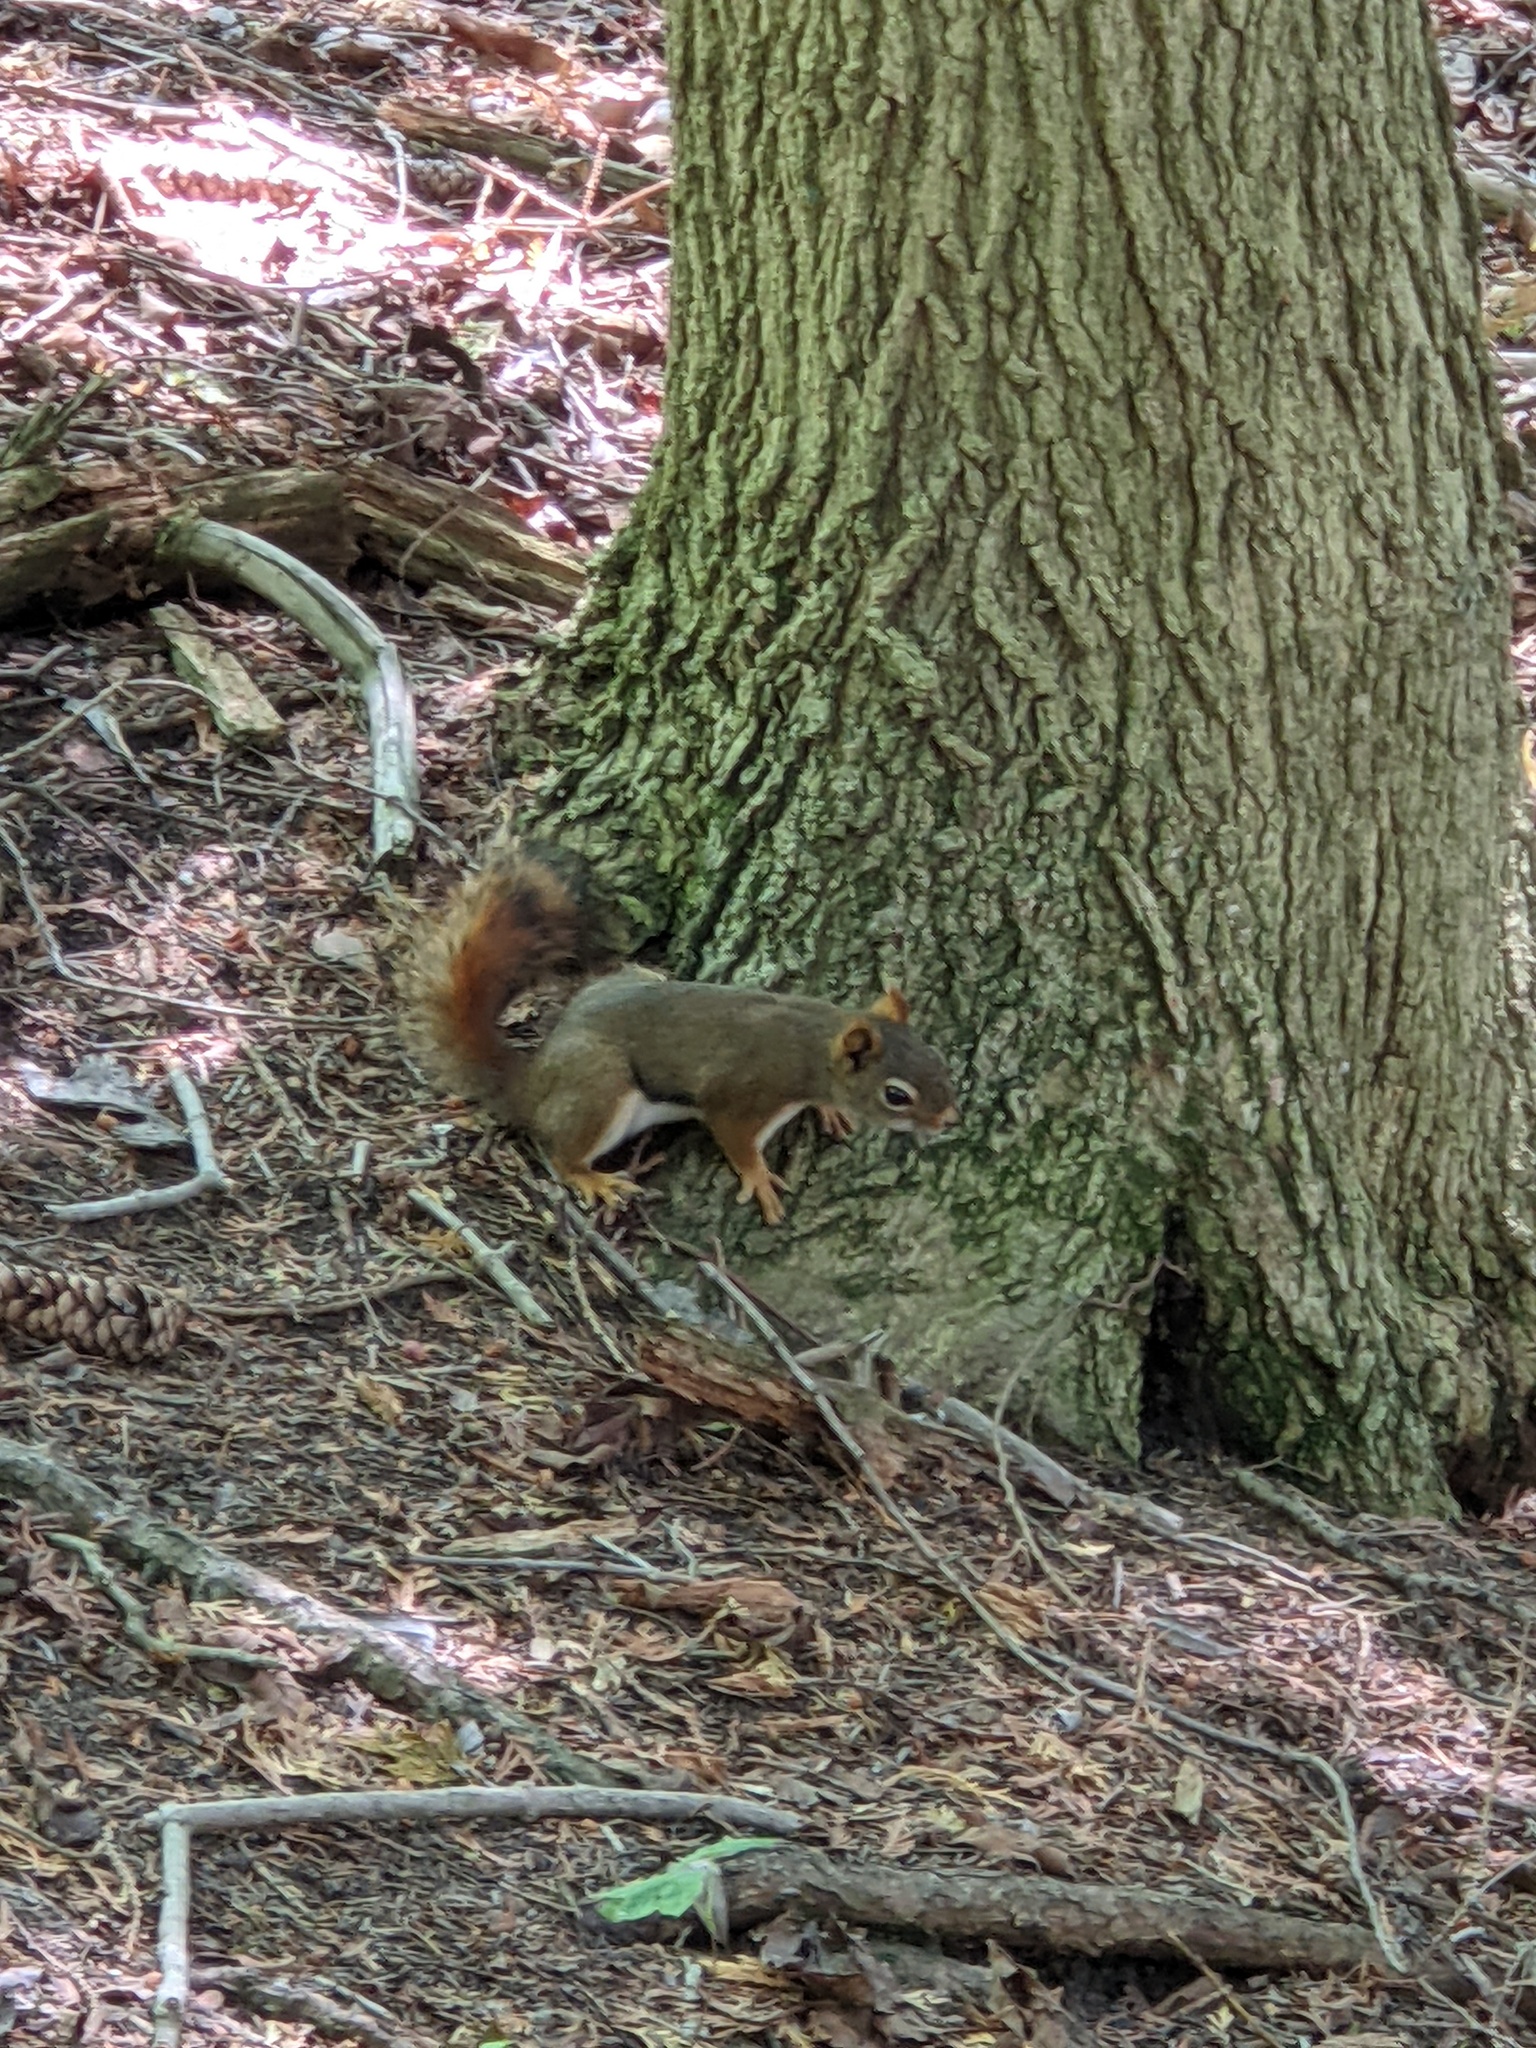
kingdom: Animalia
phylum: Chordata
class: Mammalia
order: Rodentia
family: Sciuridae
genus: Tamiasciurus
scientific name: Tamiasciurus hudsonicus
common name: Red squirrel
